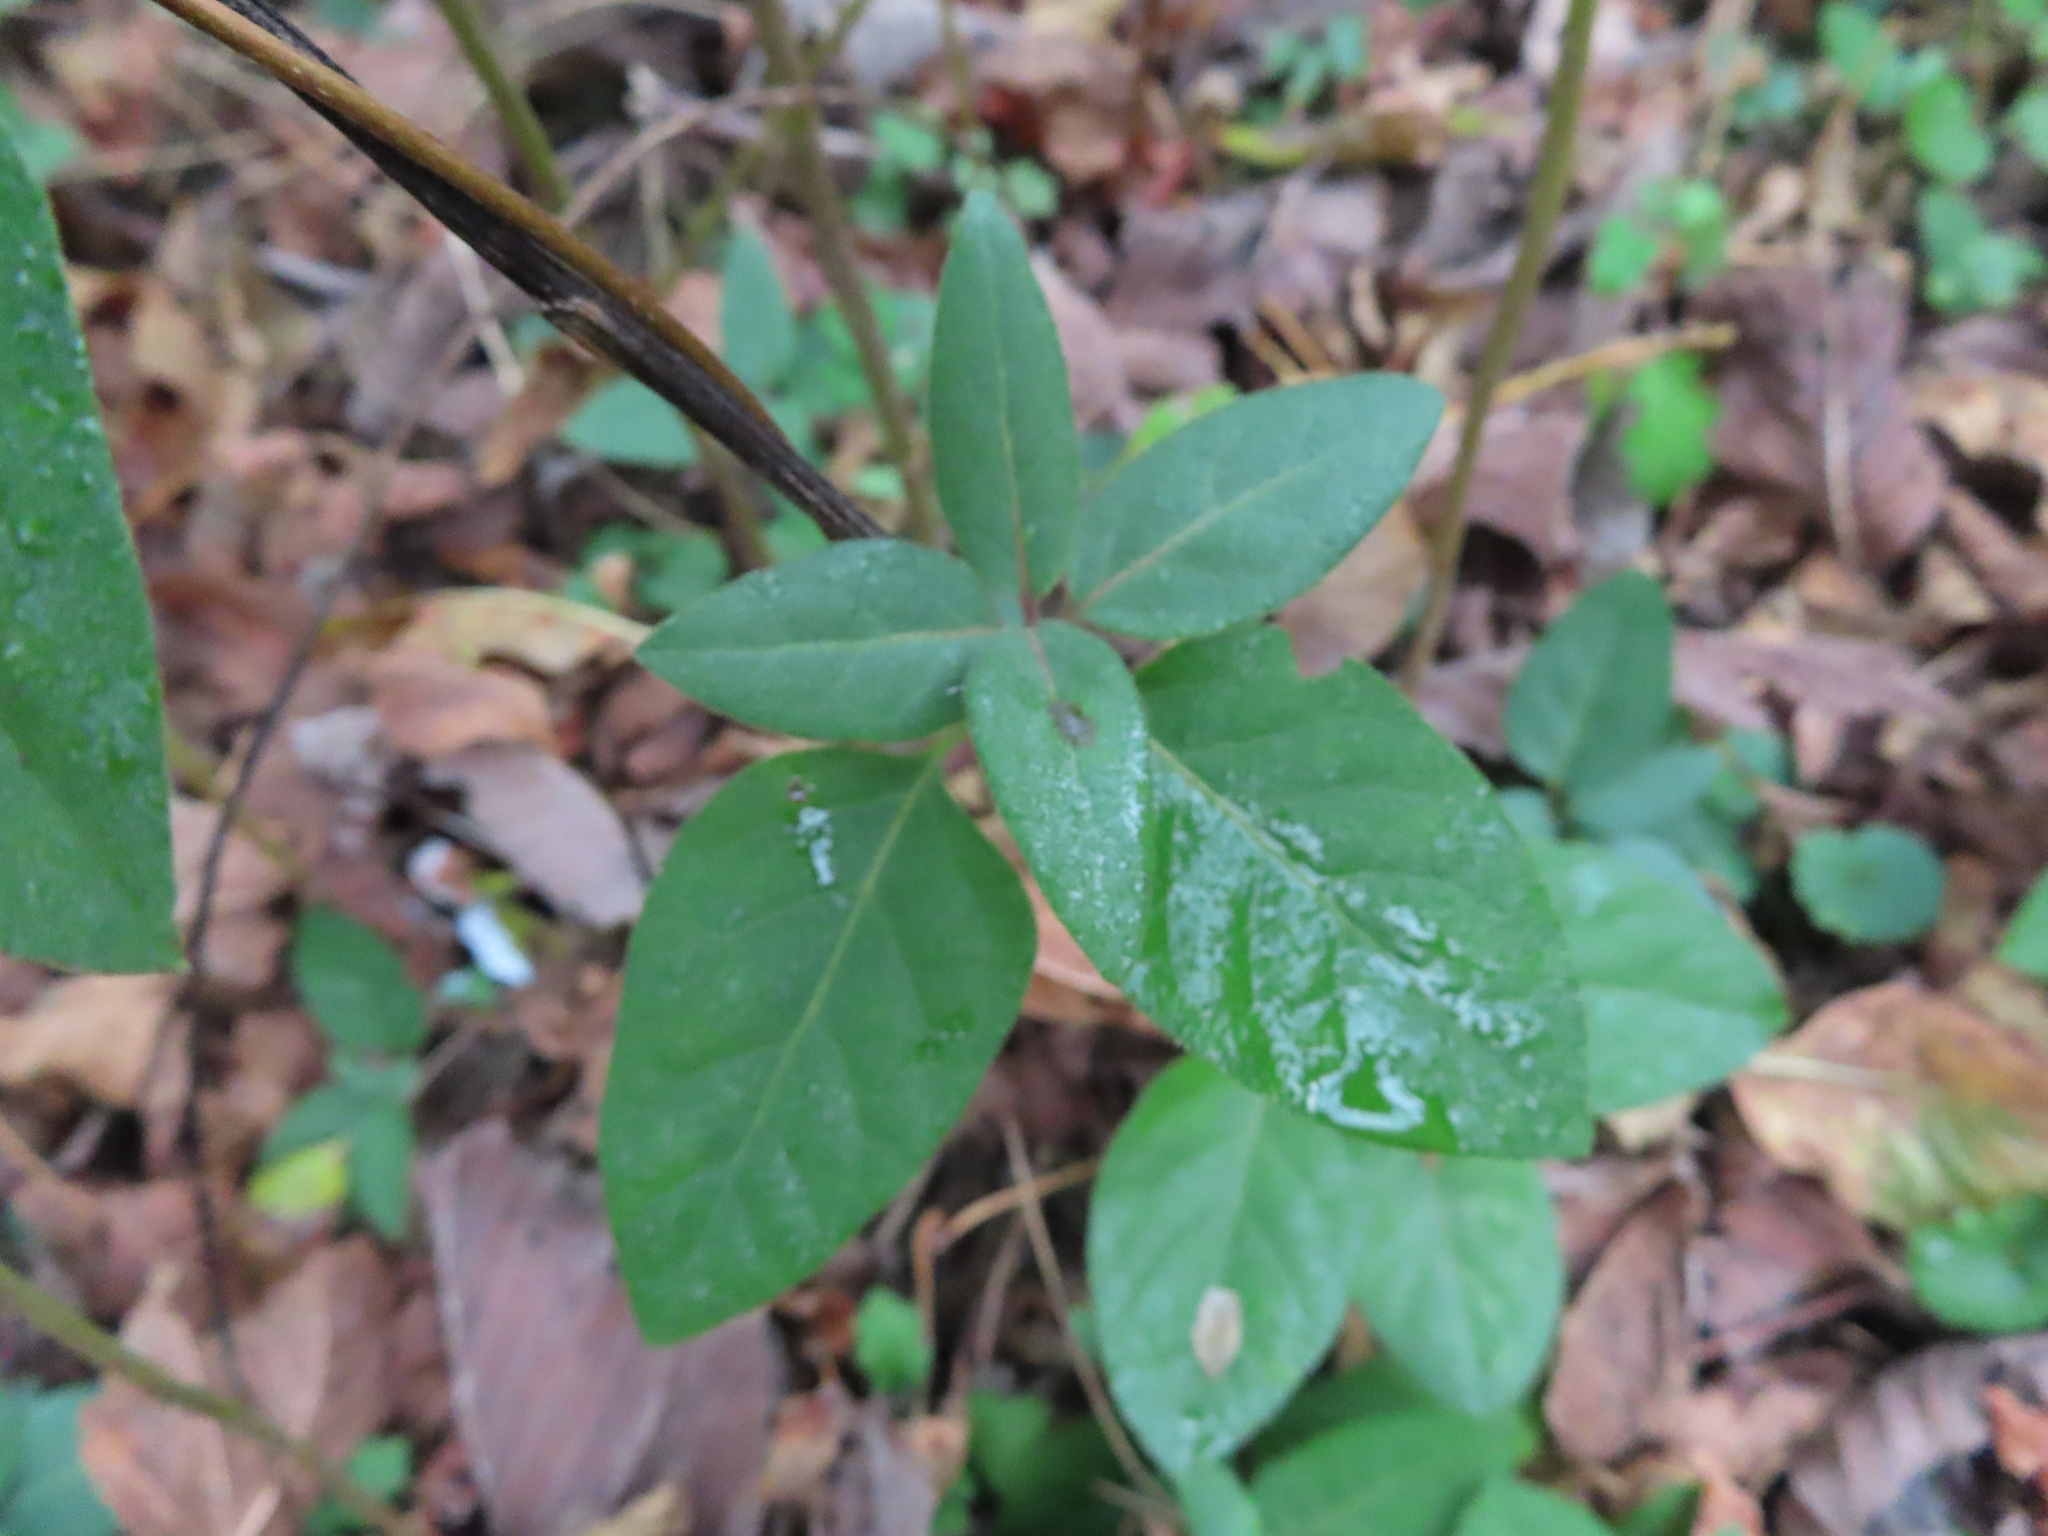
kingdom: Plantae
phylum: Tracheophyta
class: Magnoliopsida
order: Dipsacales
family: Caprifoliaceae
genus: Lonicera
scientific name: Lonicera japonica
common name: Japanese honeysuckle
